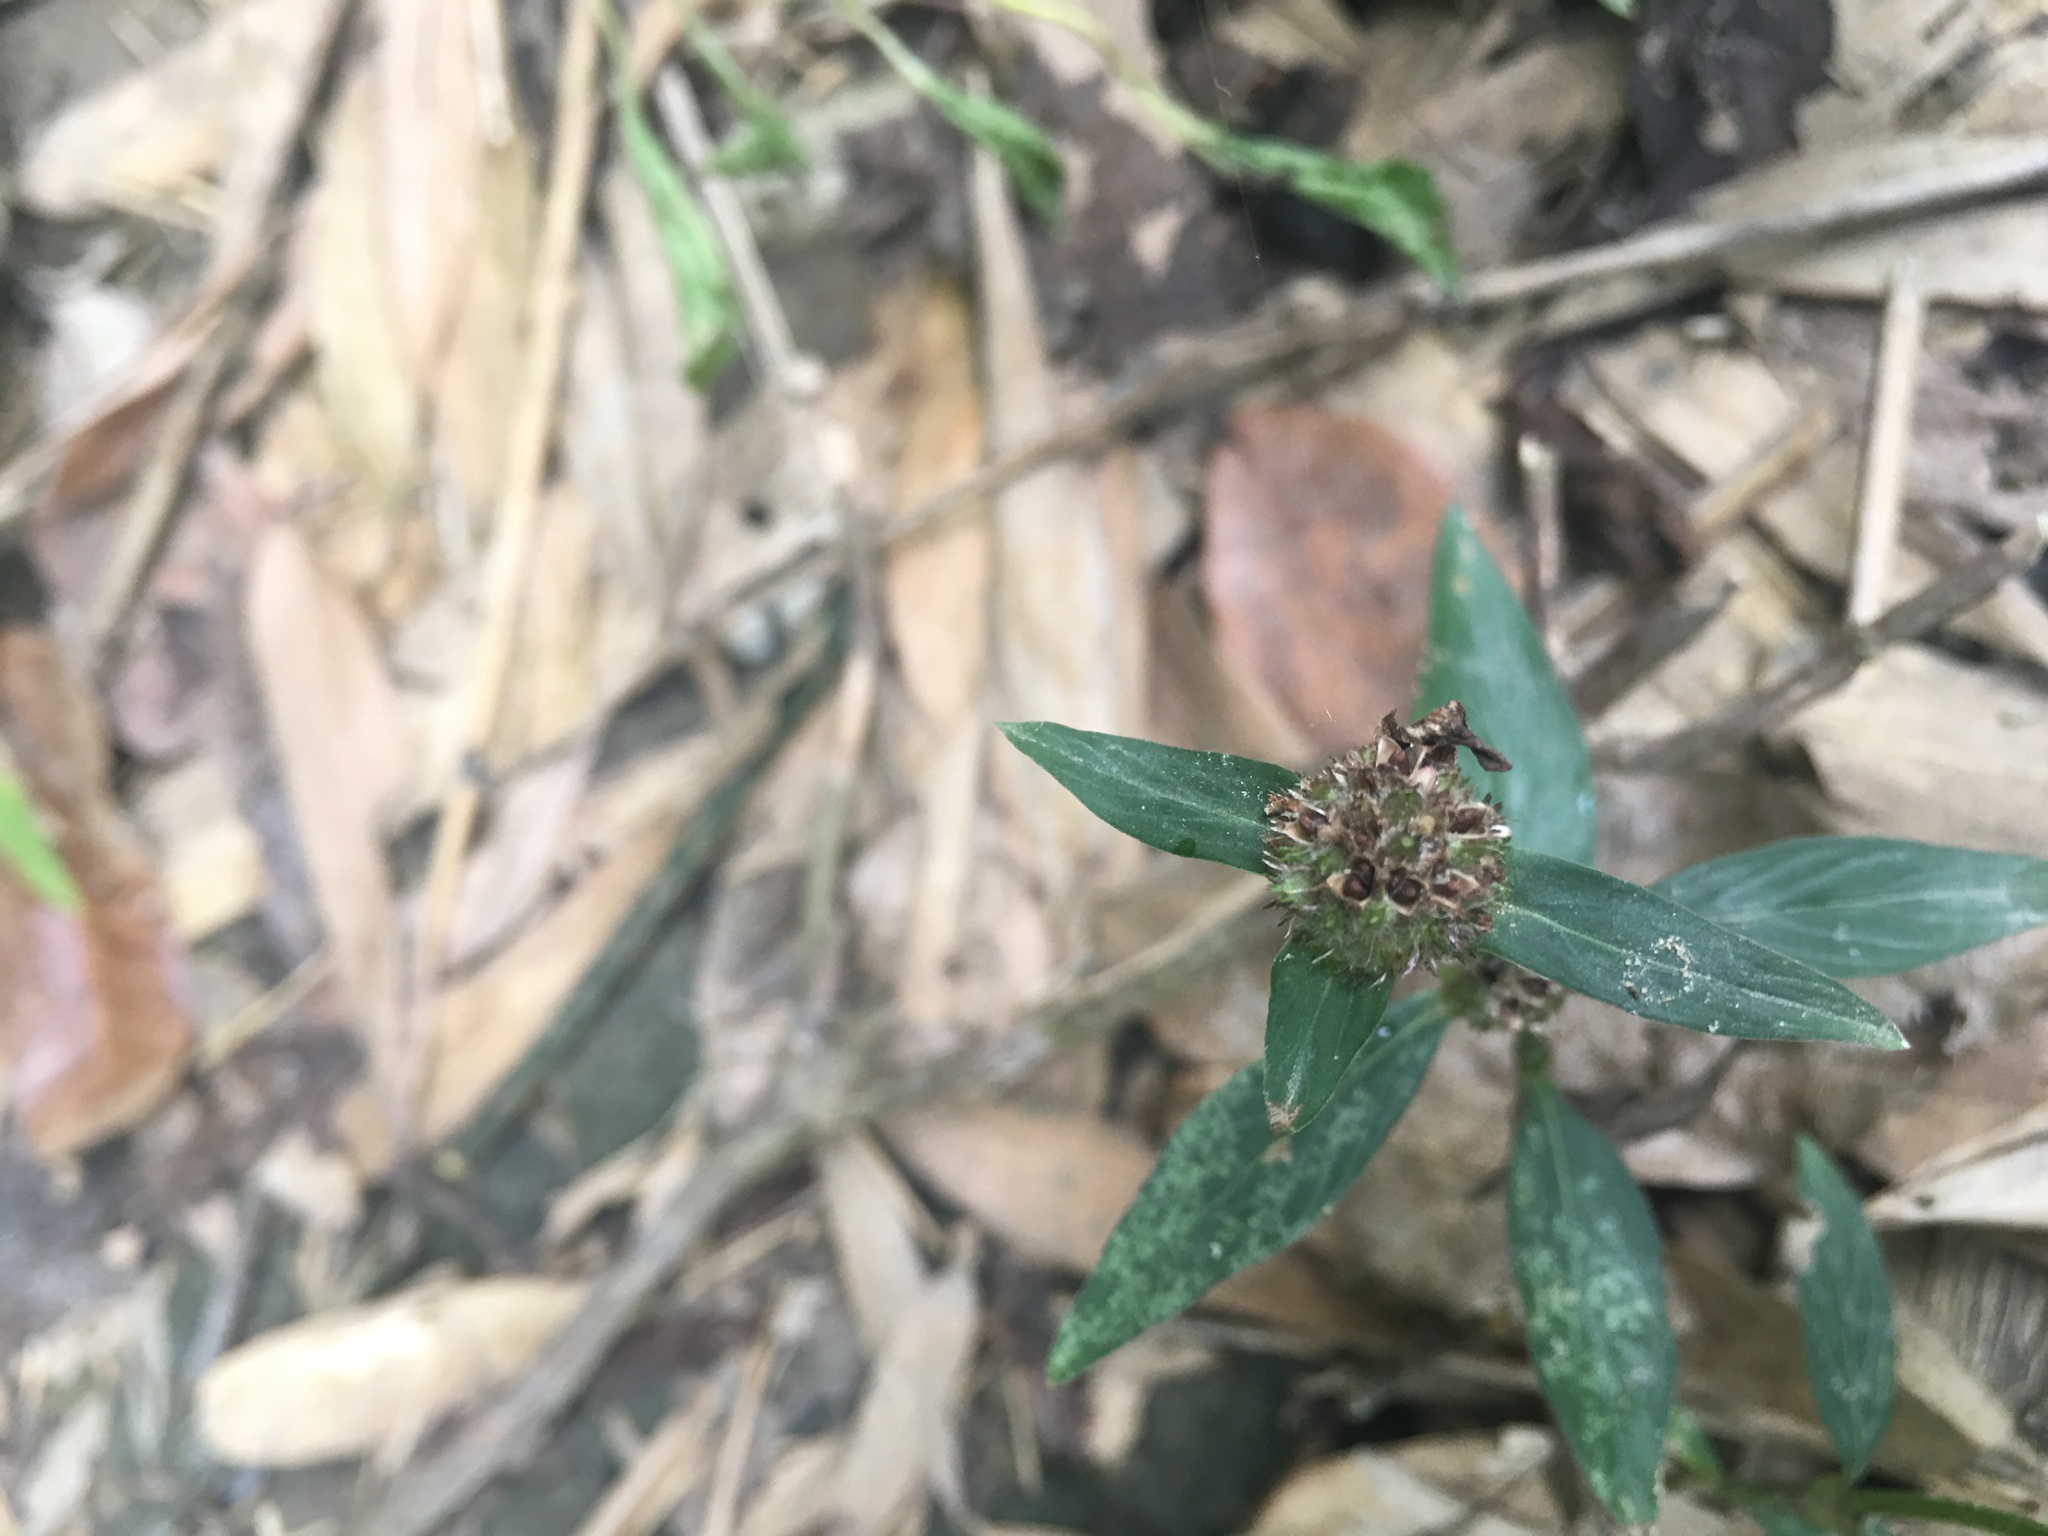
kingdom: Plantae
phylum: Tracheophyta
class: Magnoliopsida
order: Gentianales
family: Rubiaceae
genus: Spermacoce
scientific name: Spermacoce remota
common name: Woodland false buttonweed
